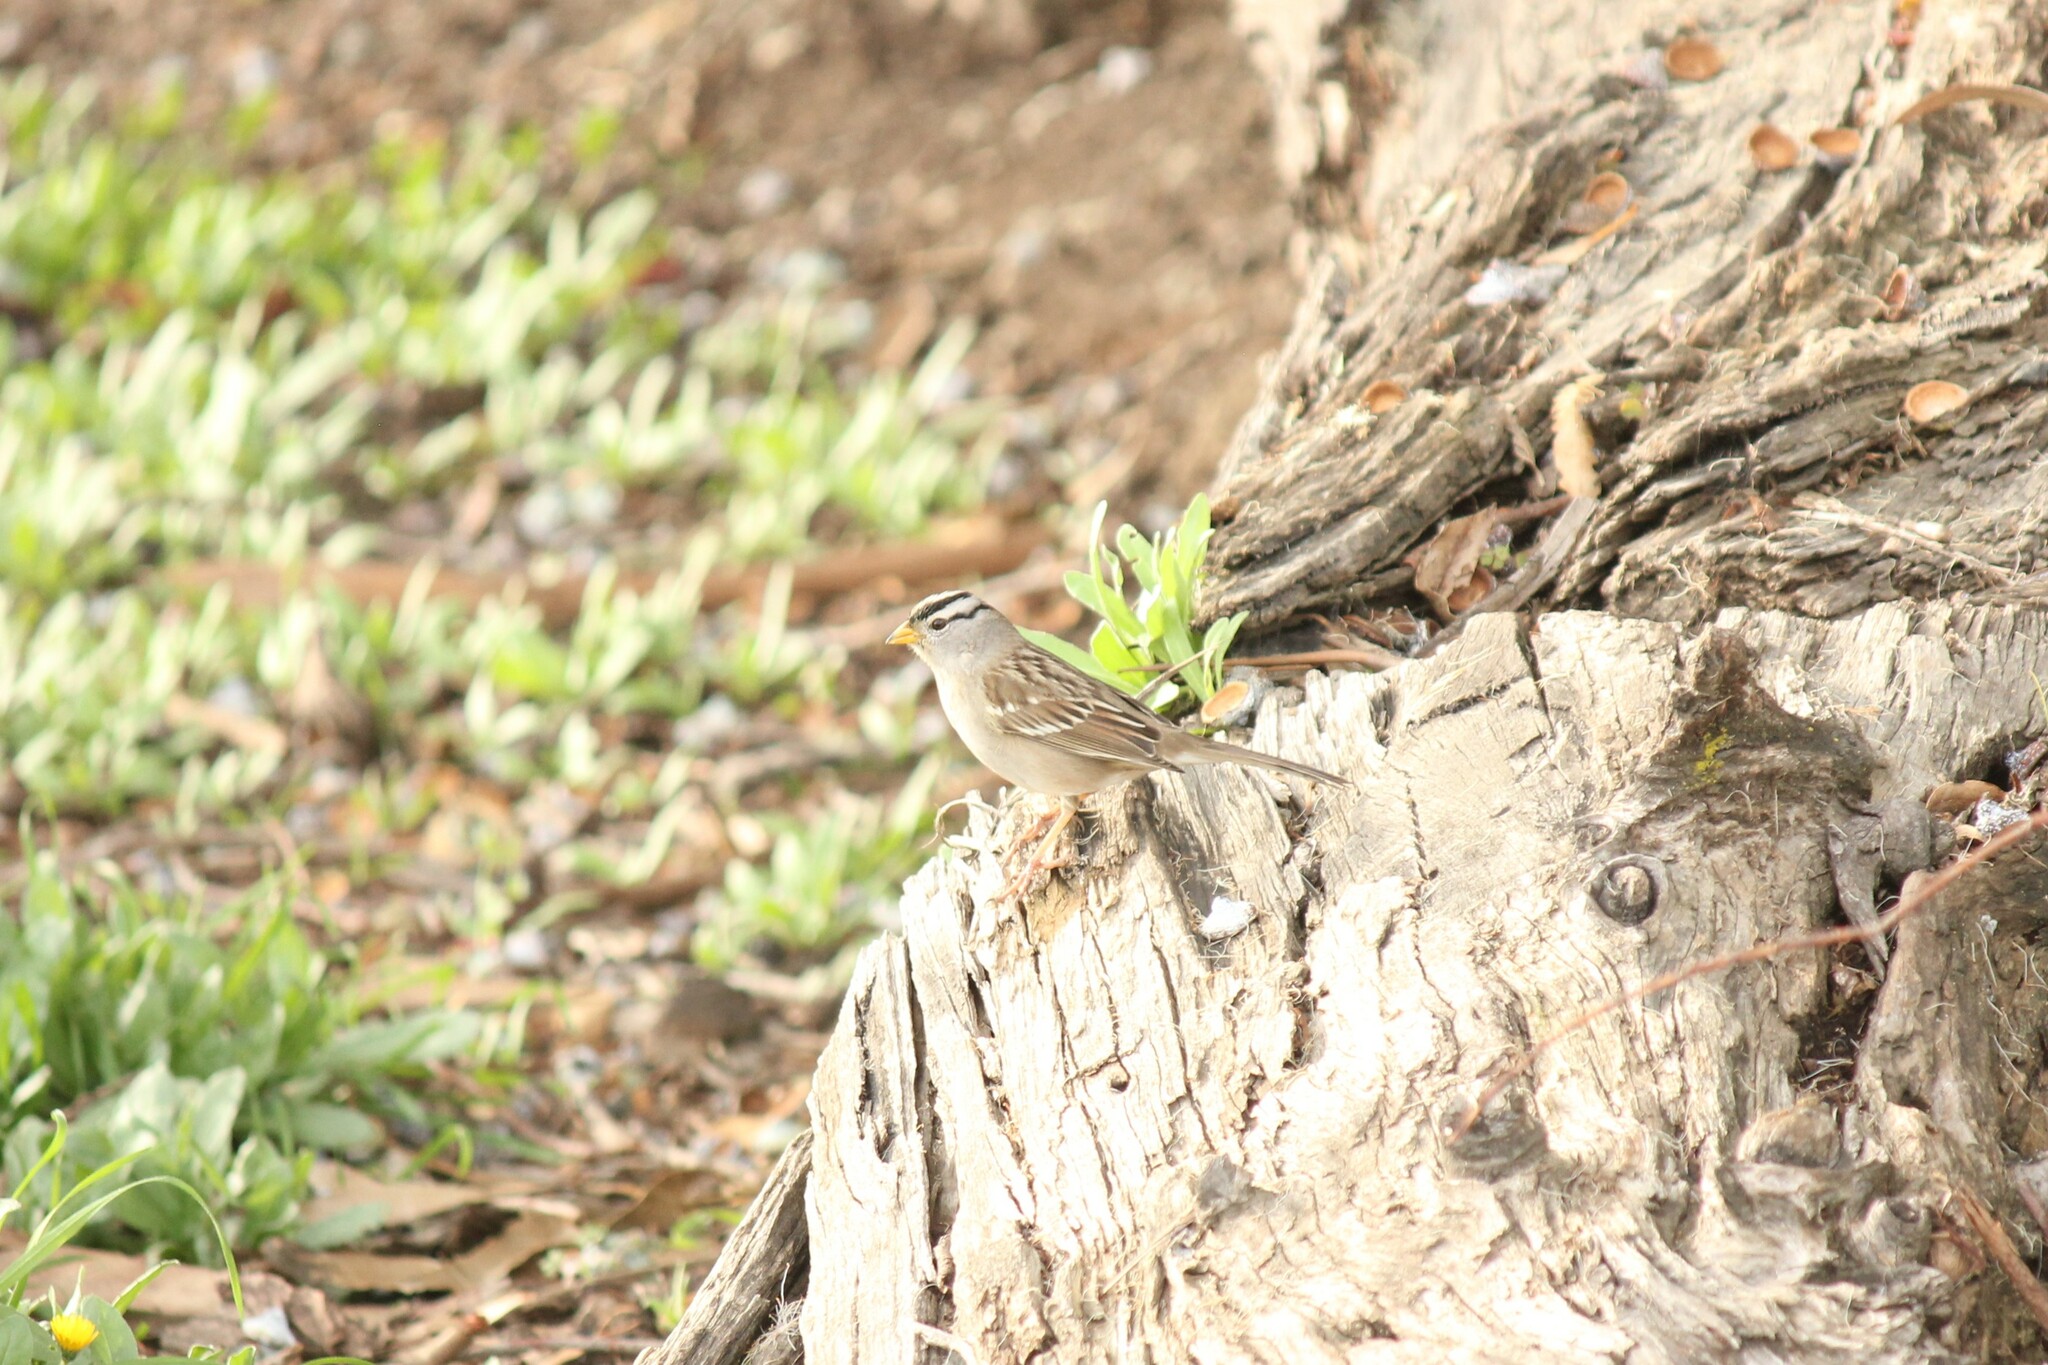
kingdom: Animalia
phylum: Chordata
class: Aves
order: Passeriformes
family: Passerellidae
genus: Zonotrichia
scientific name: Zonotrichia leucophrys
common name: White-crowned sparrow
